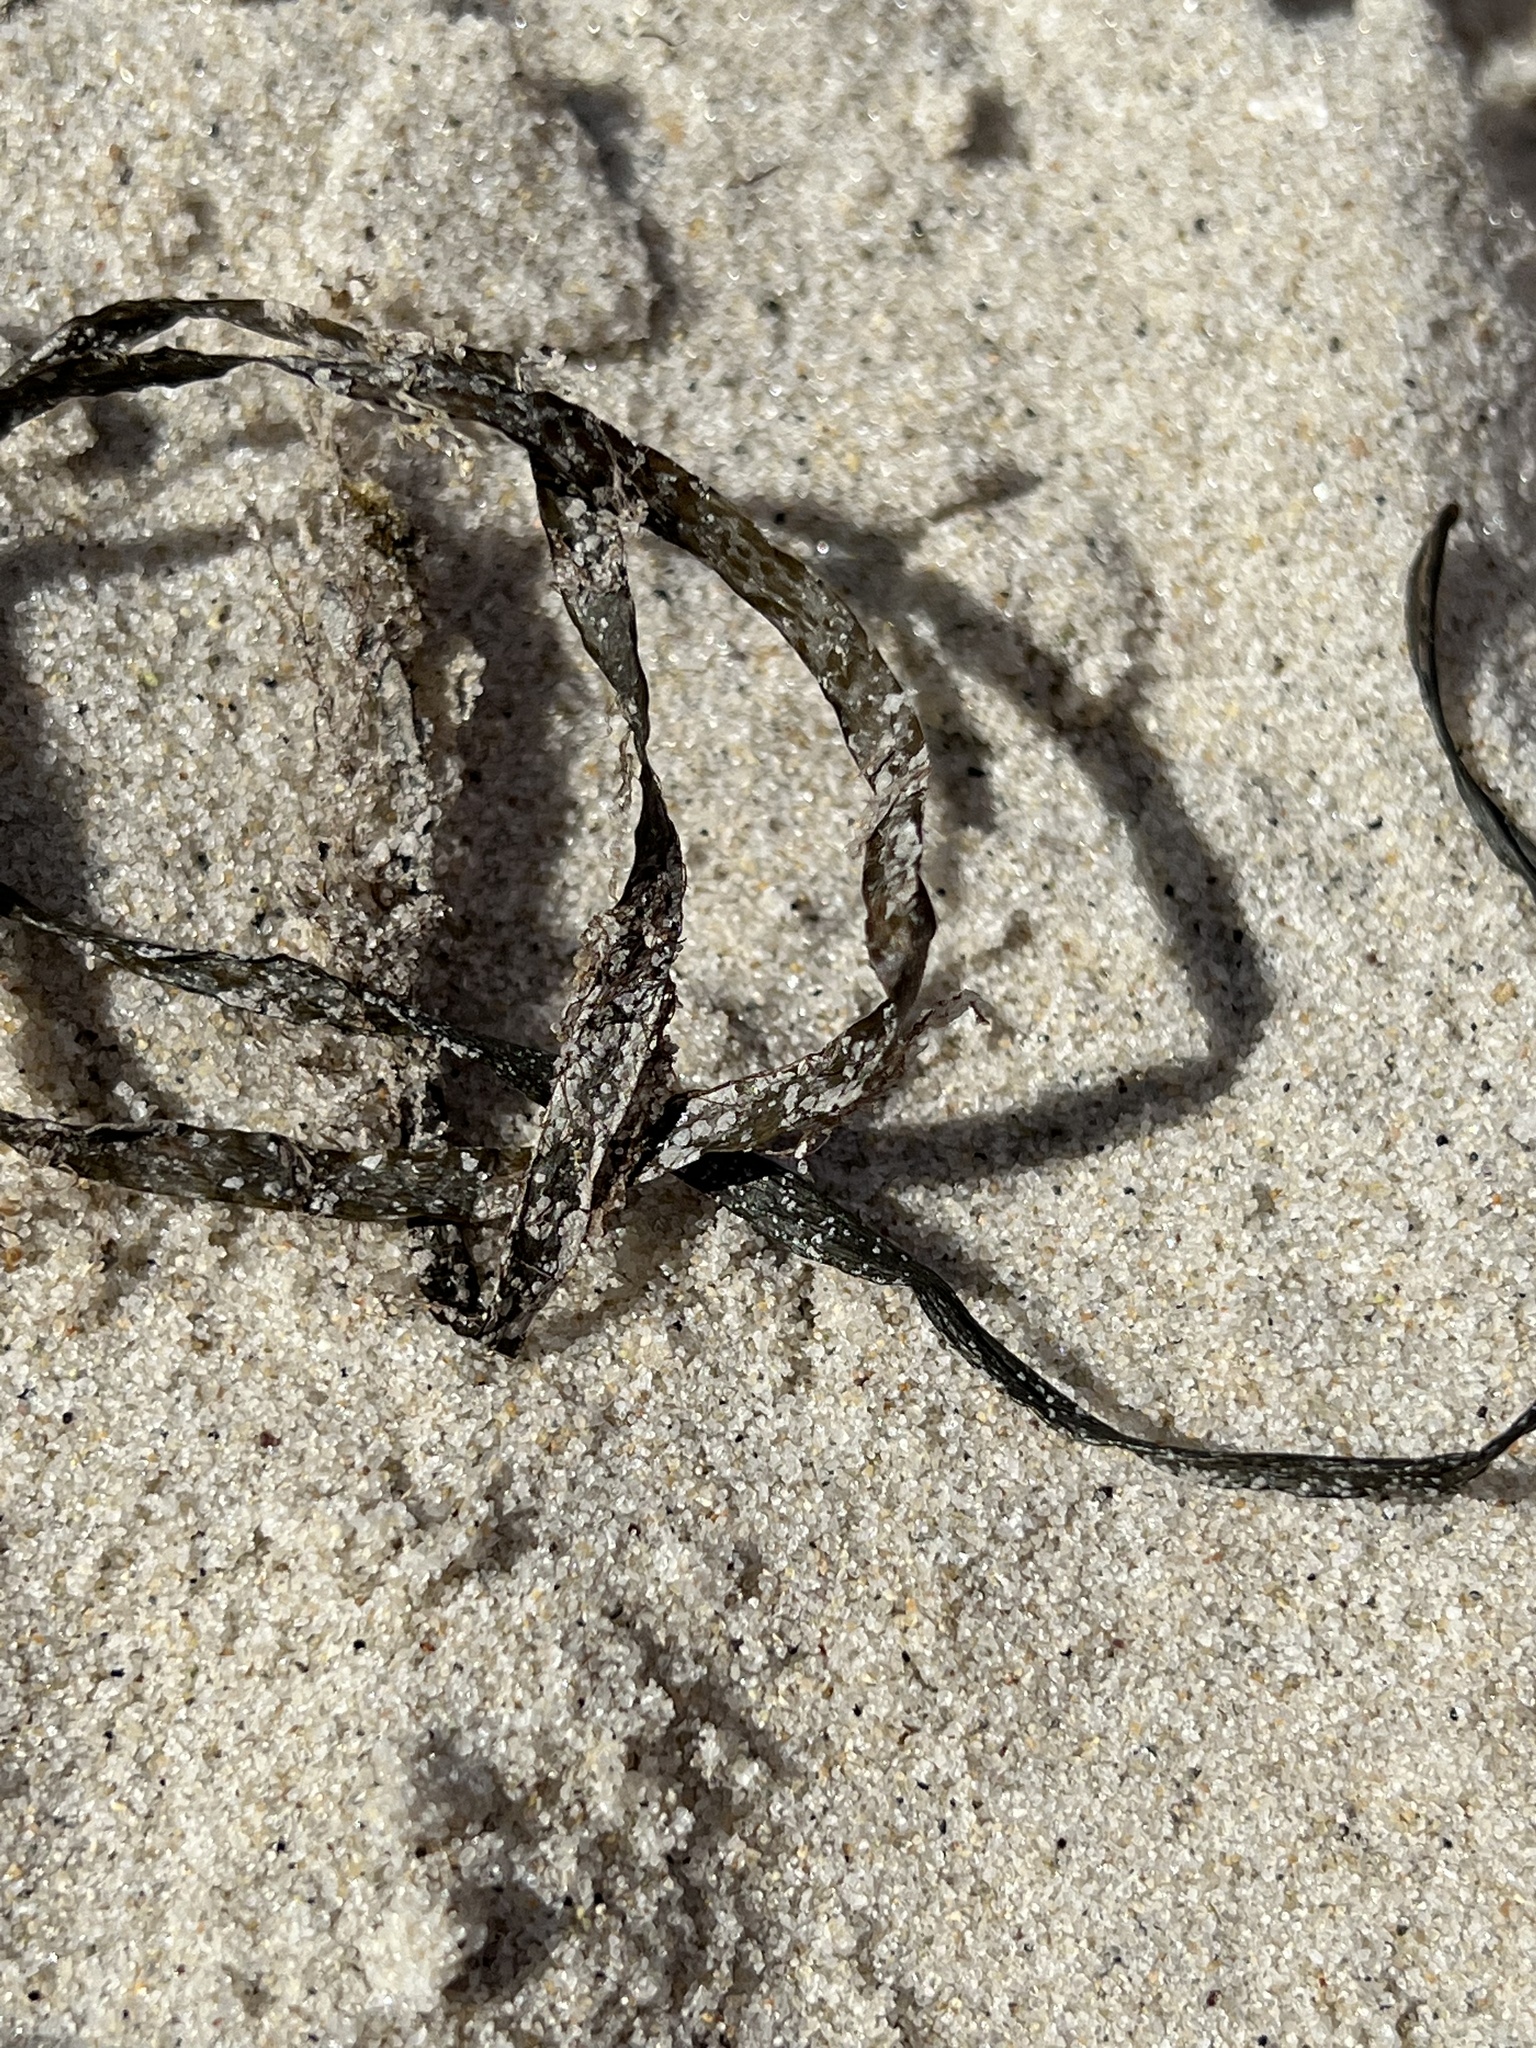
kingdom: Plantae
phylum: Tracheophyta
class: Liliopsida
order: Alismatales
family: Zosteraceae
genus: Zostera
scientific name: Zostera marina
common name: Eelgrass
